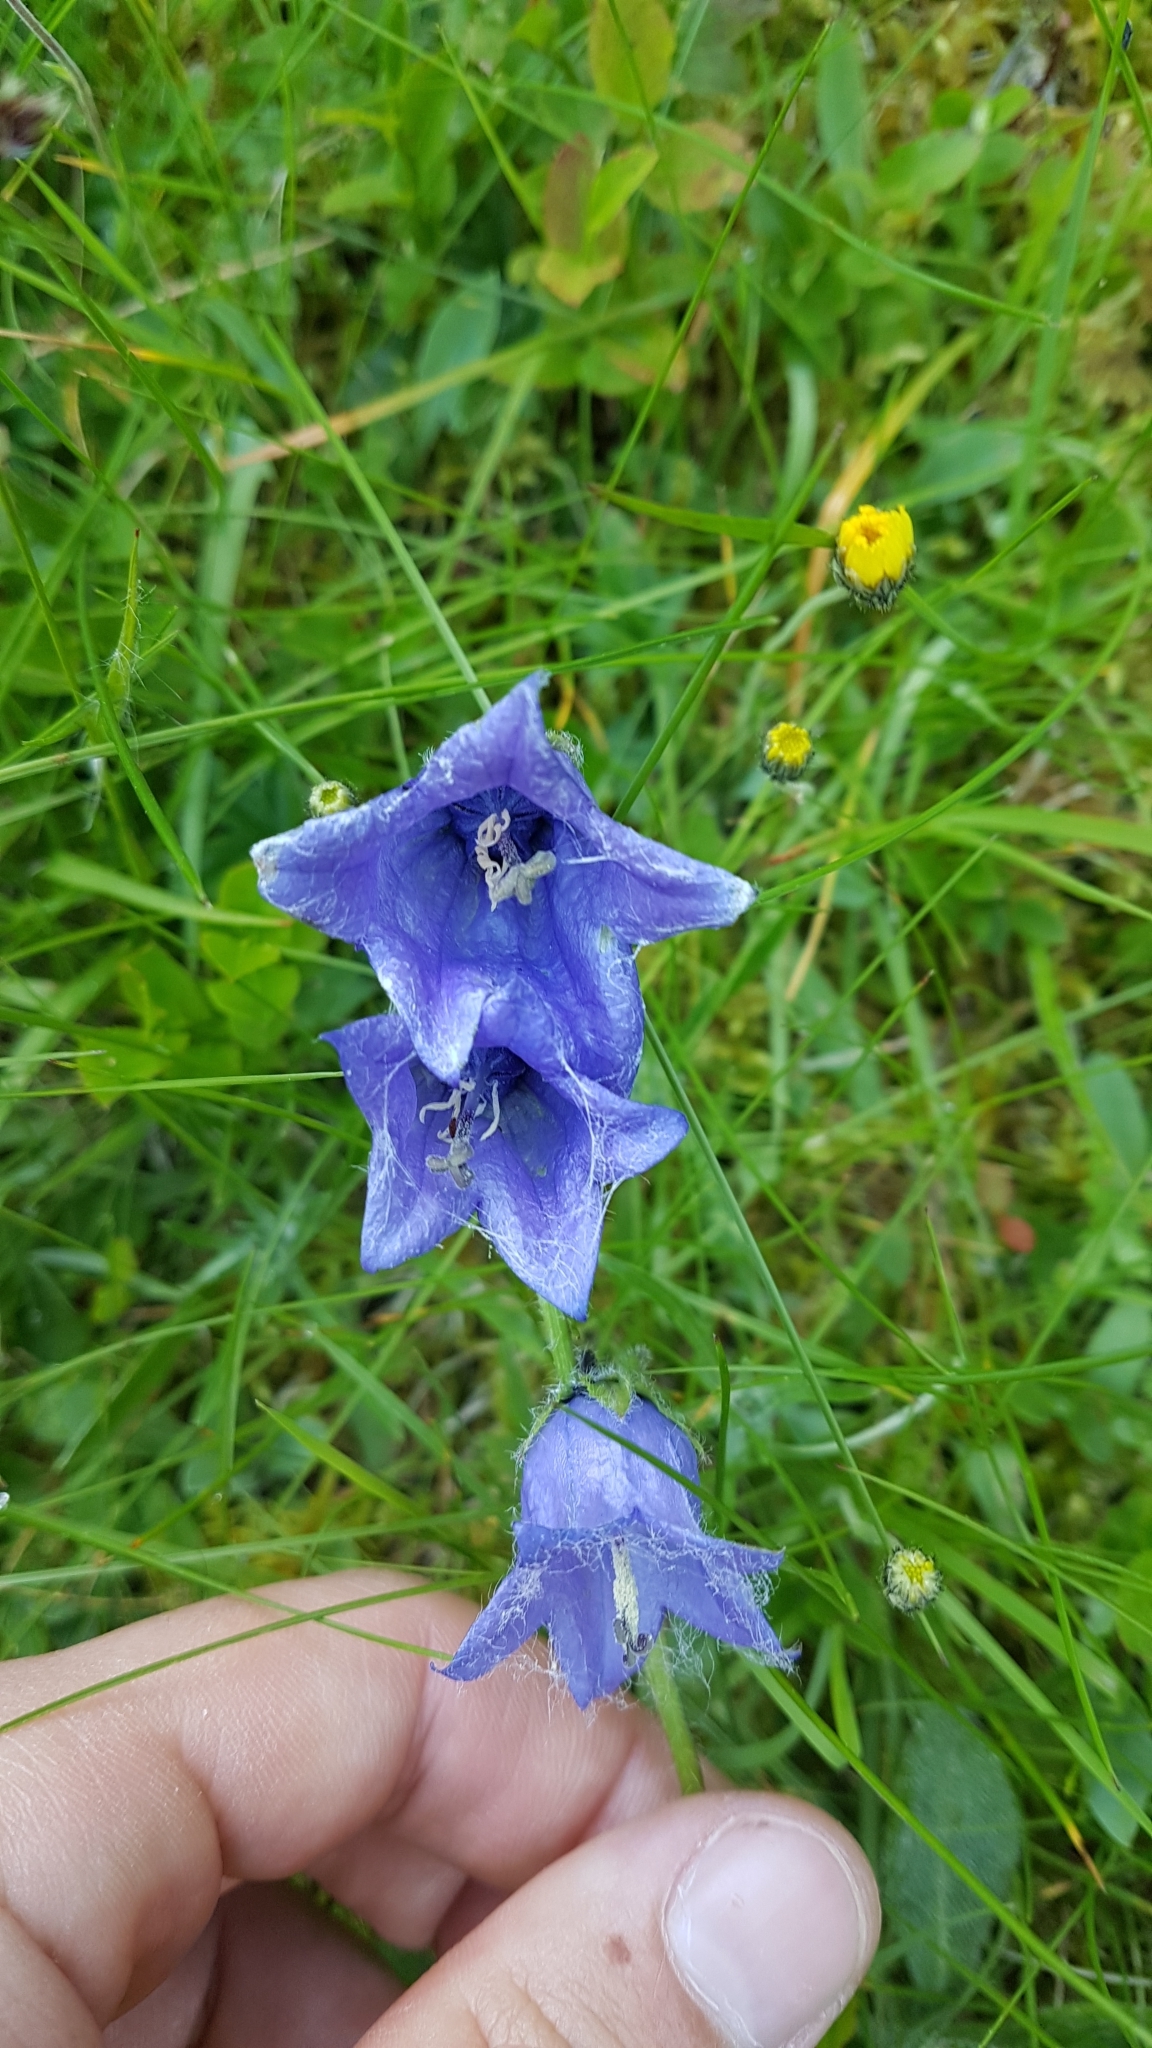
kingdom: Plantae
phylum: Tracheophyta
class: Magnoliopsida
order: Asterales
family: Campanulaceae
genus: Campanula
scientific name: Campanula barbata
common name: Bearded bellflower
